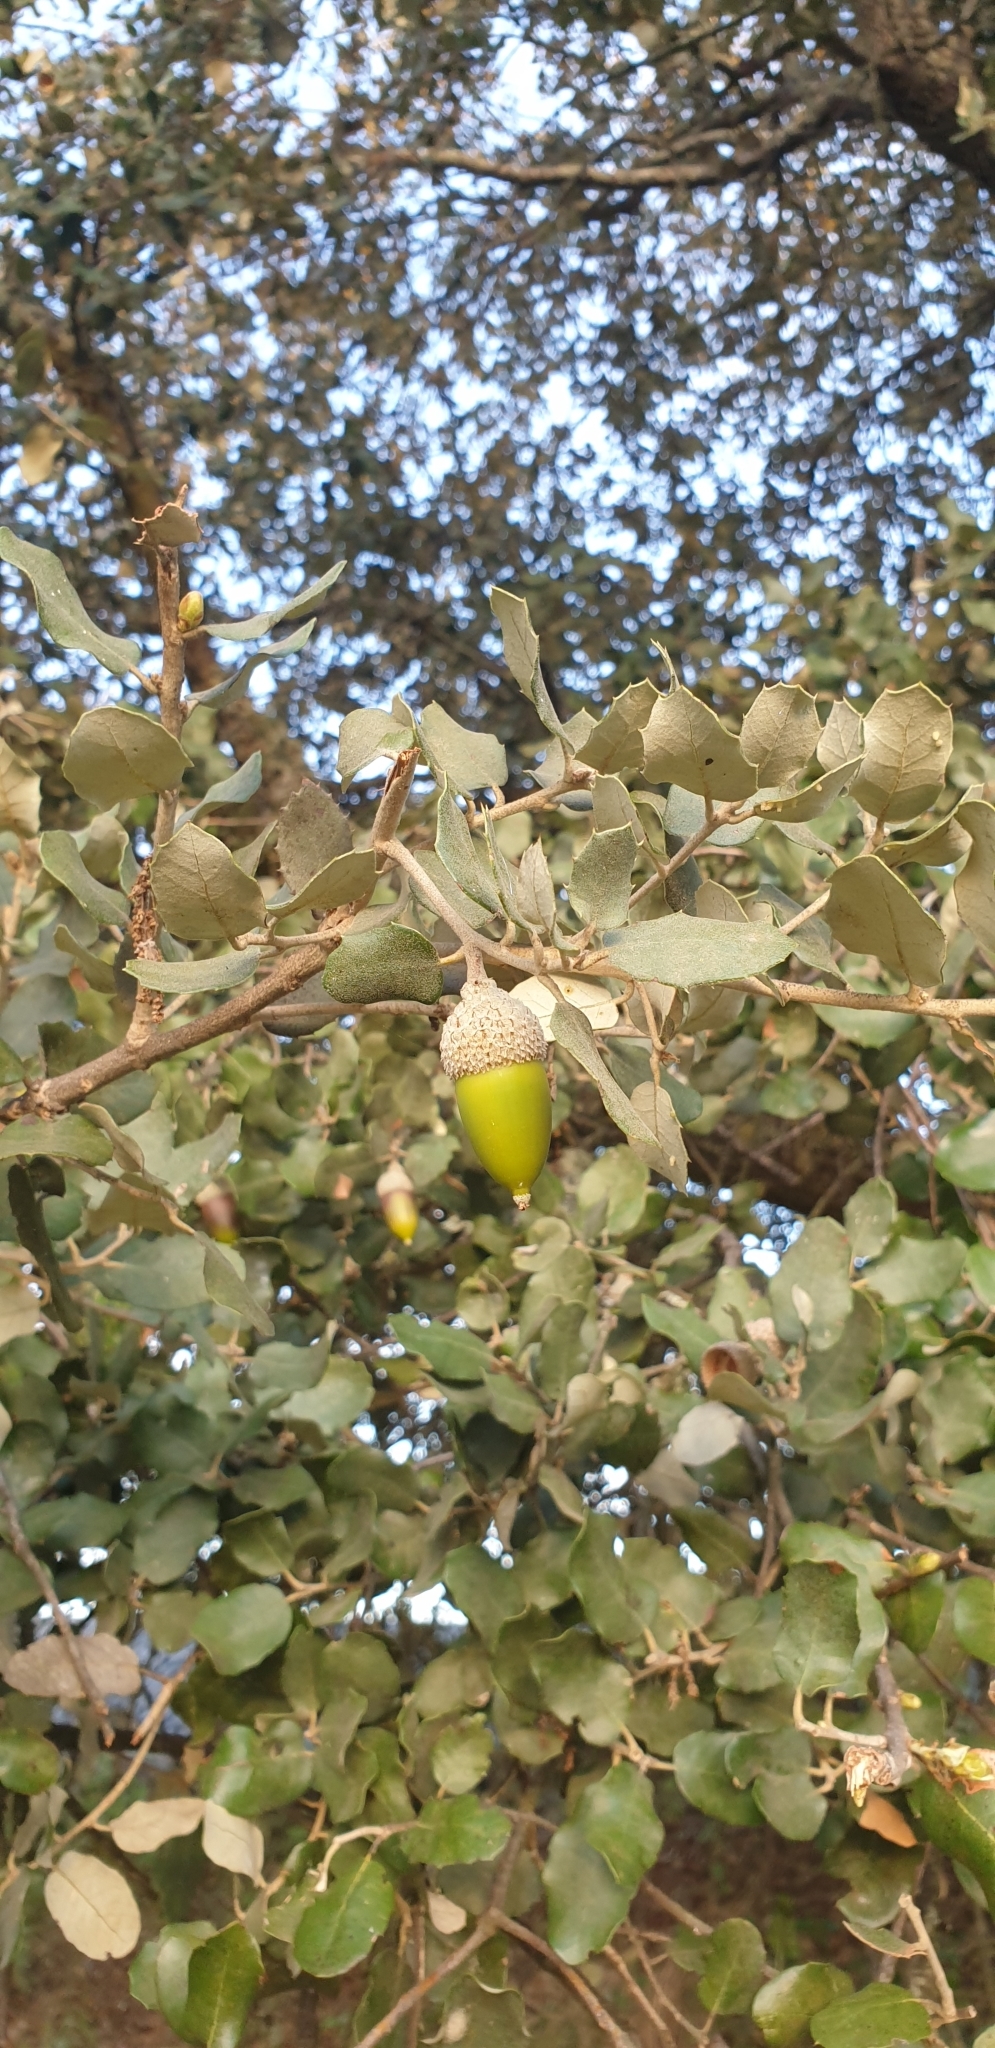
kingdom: Plantae
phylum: Tracheophyta
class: Magnoliopsida
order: Fagales
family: Fagaceae
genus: Quercus
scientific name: Quercus rotundifolia
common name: Holm oak
